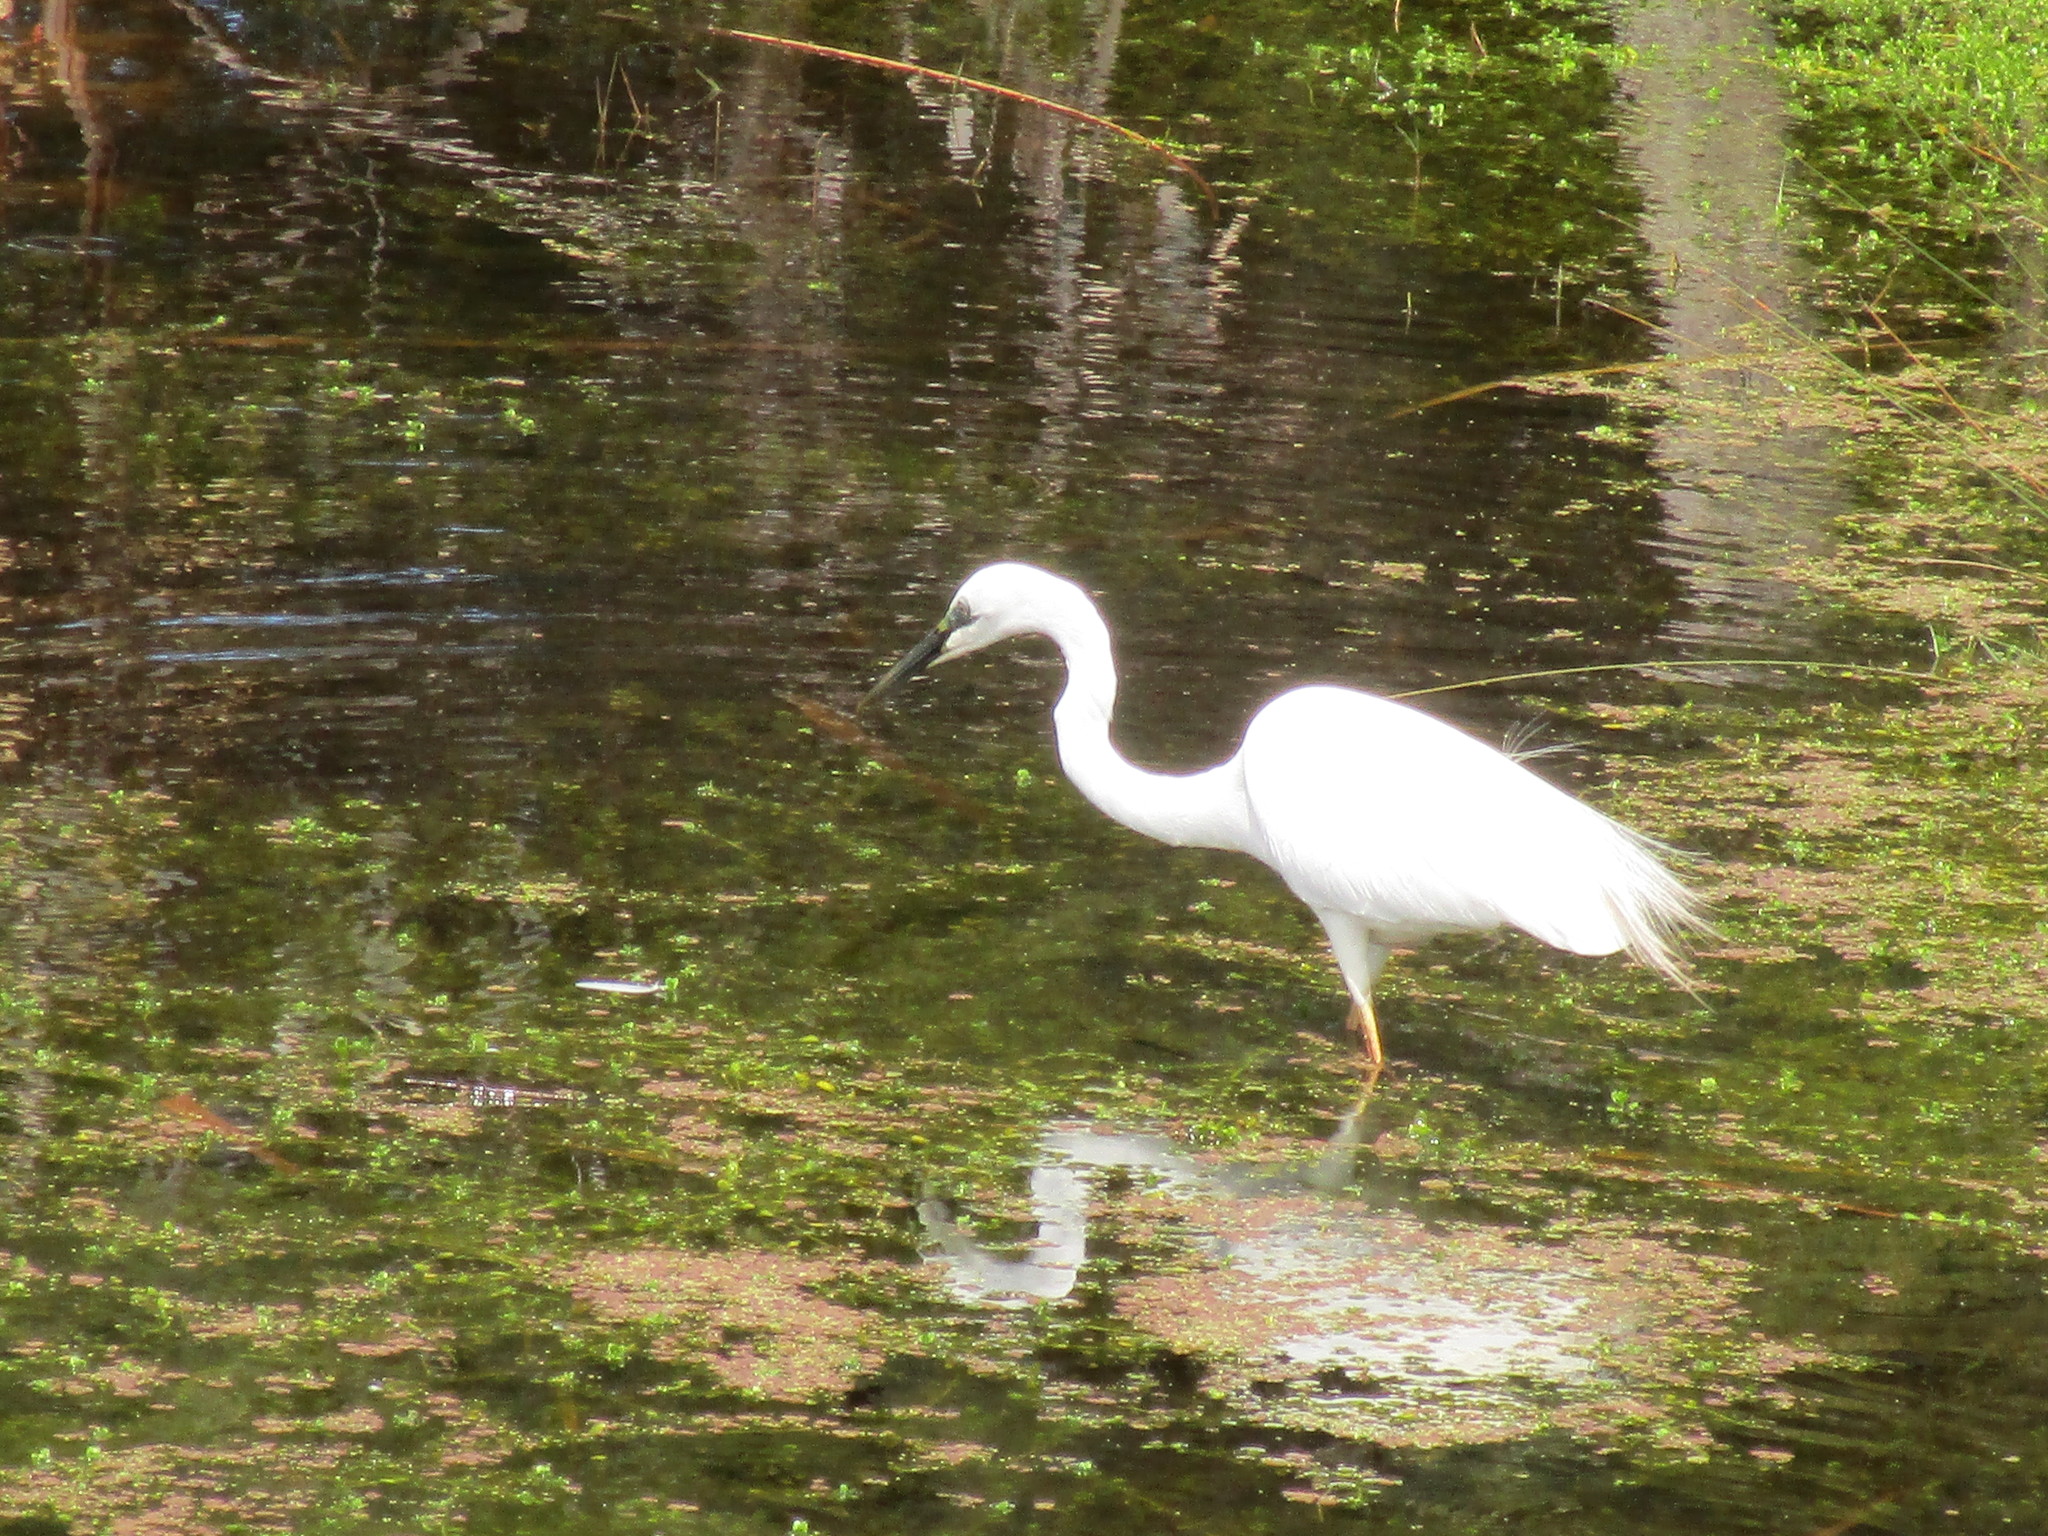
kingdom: Animalia
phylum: Chordata
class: Aves
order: Pelecaniformes
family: Ardeidae
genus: Ardea
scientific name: Ardea modesta
